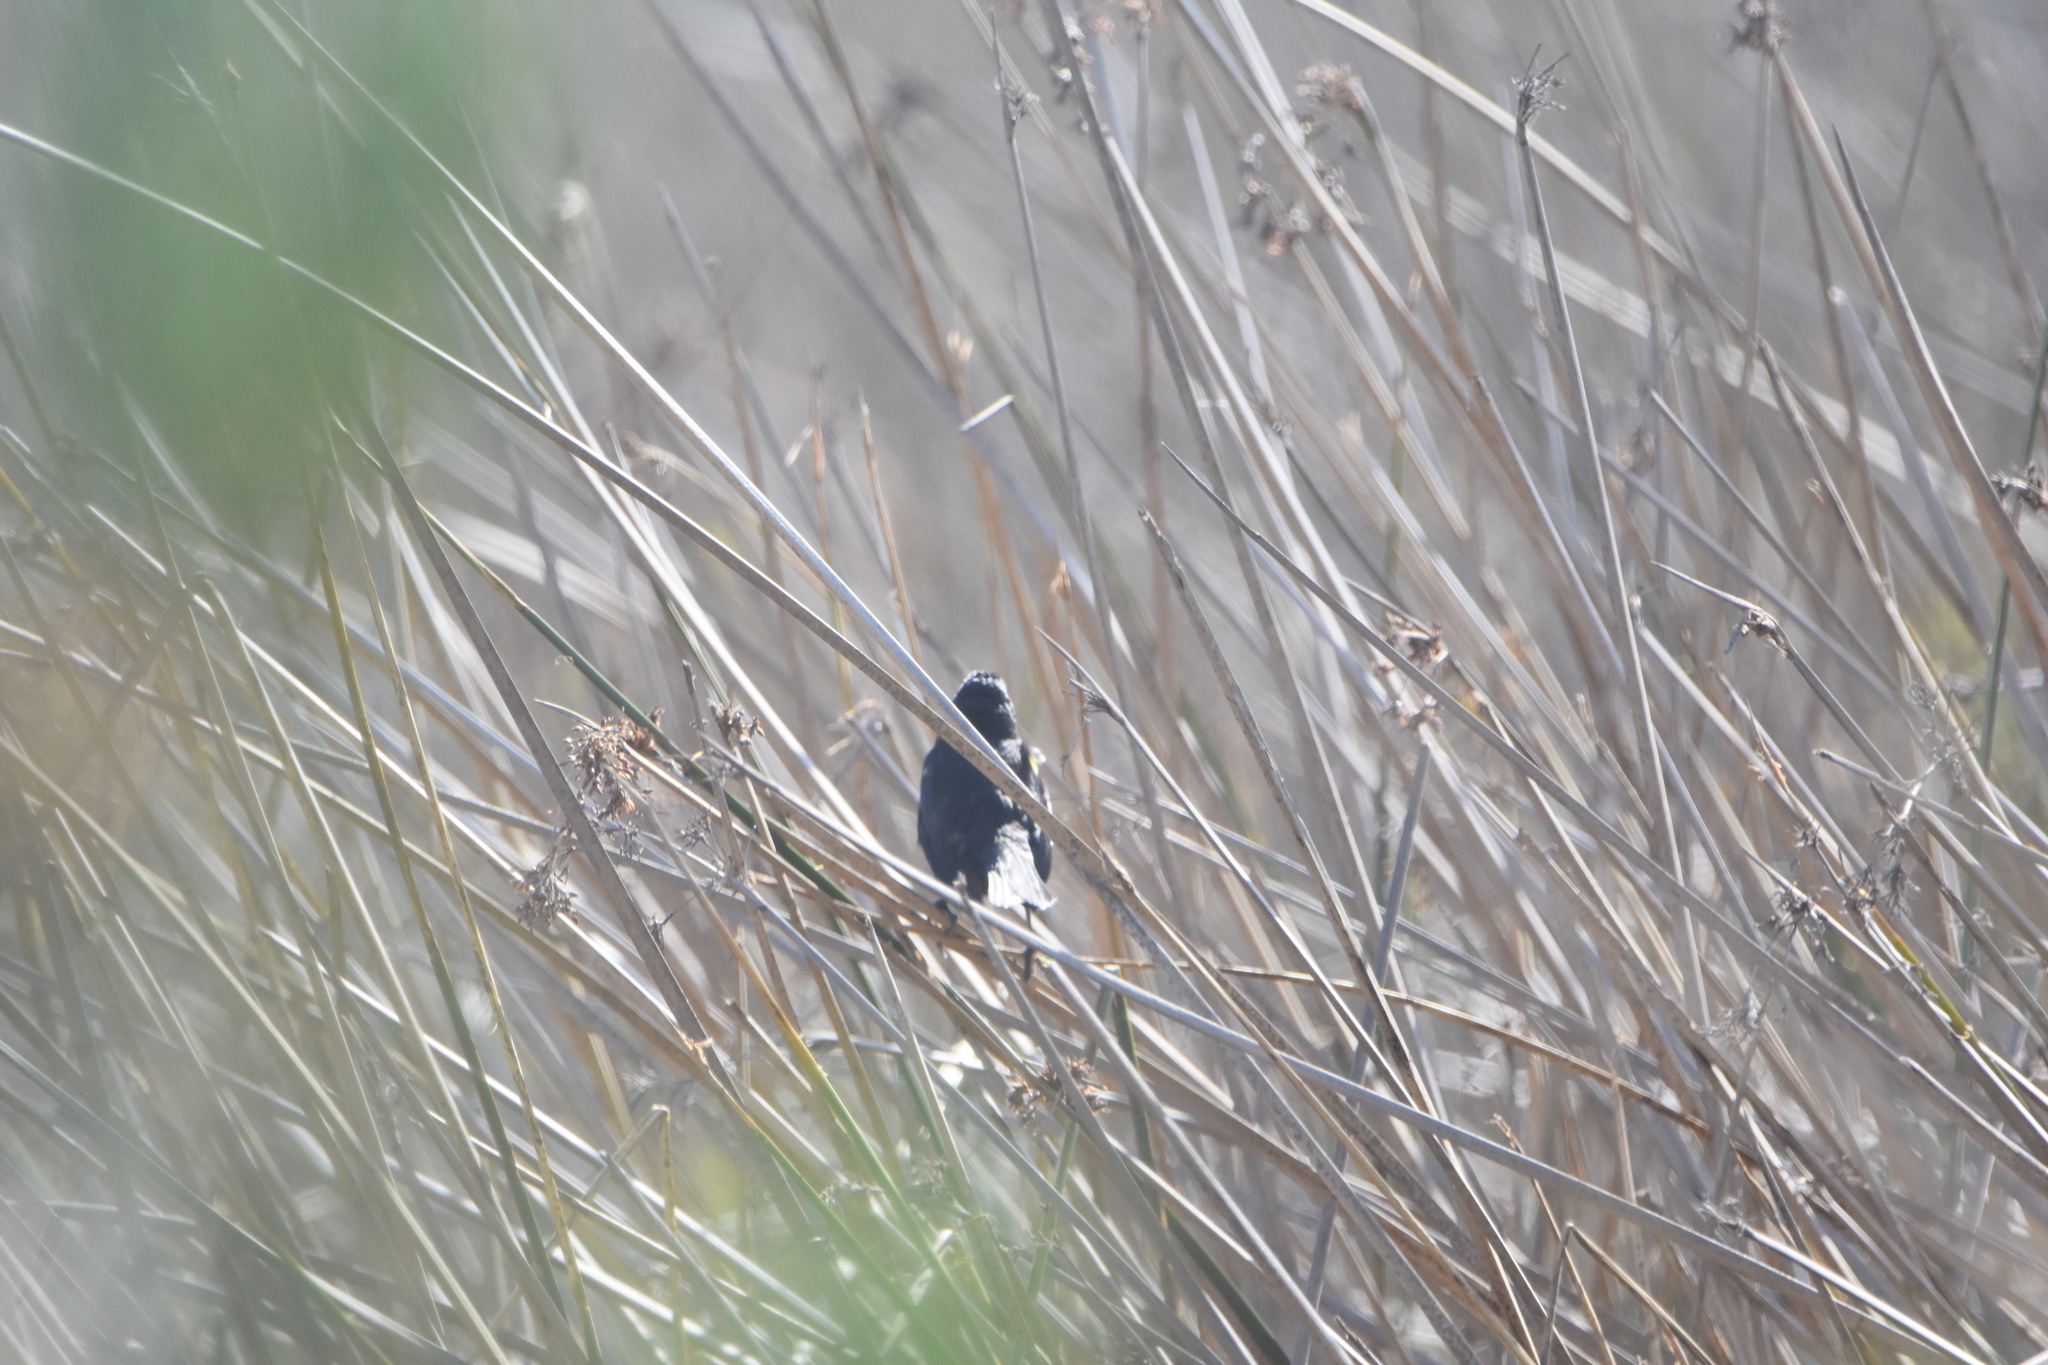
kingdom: Animalia
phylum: Chordata
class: Aves
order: Passeriformes
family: Icteridae
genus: Agelasticus
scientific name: Agelasticus thilius
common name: Yellow-winged blackbird
